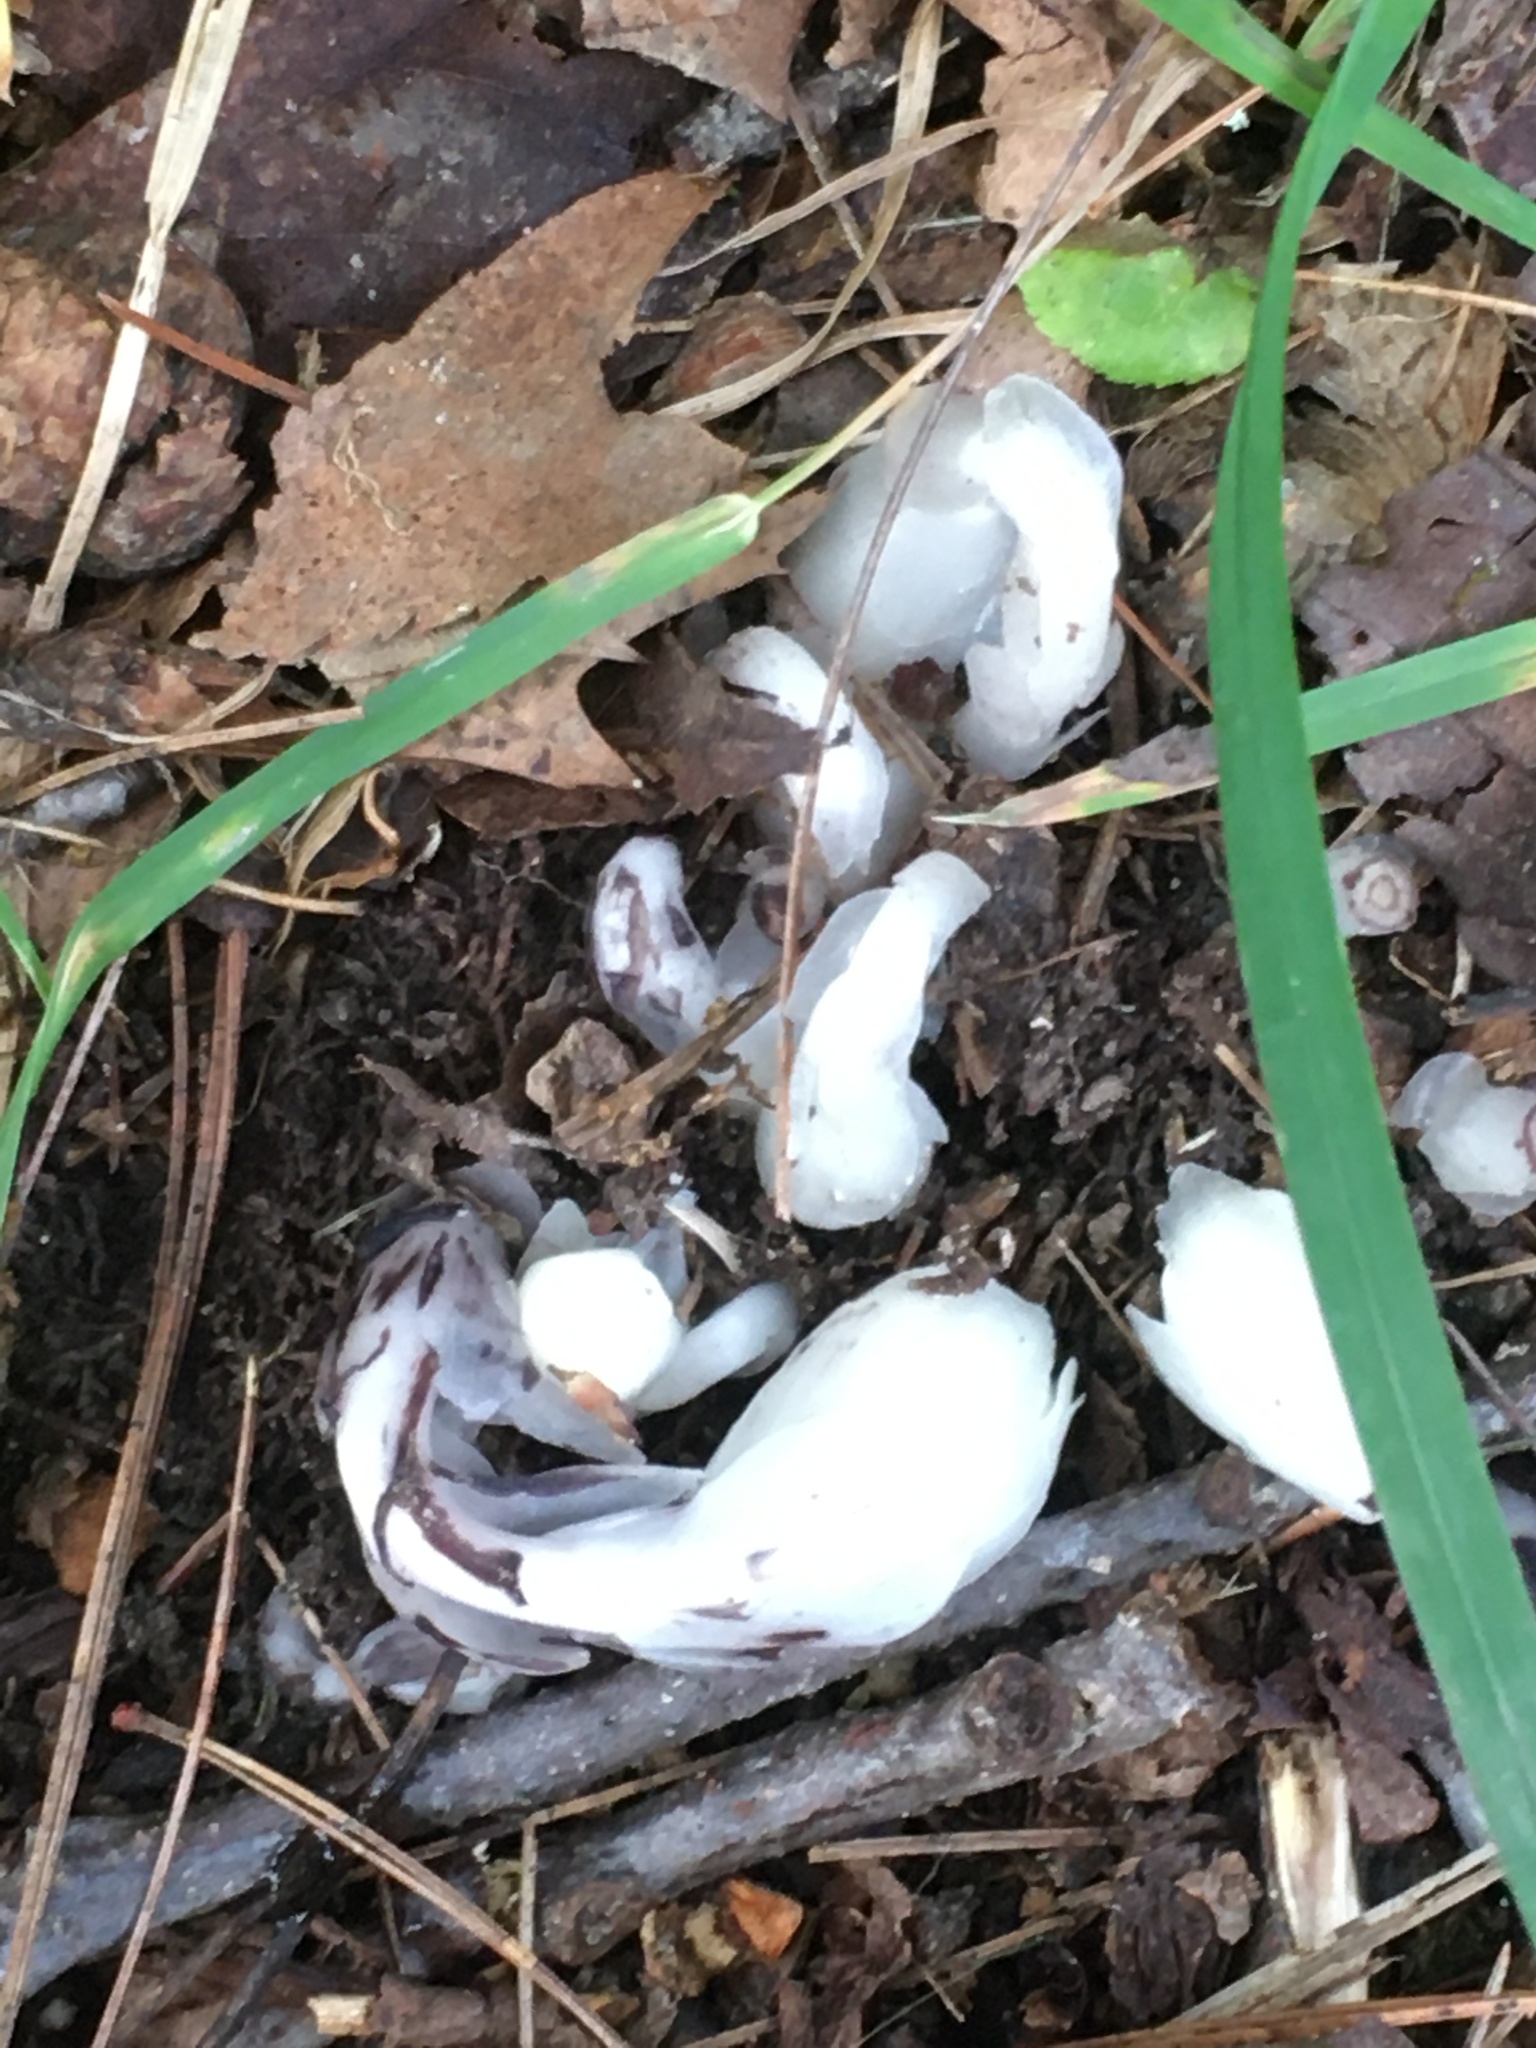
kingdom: Plantae
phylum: Tracheophyta
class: Magnoliopsida
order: Ericales
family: Ericaceae
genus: Monotropa
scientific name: Monotropa uniflora
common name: Convulsion root
